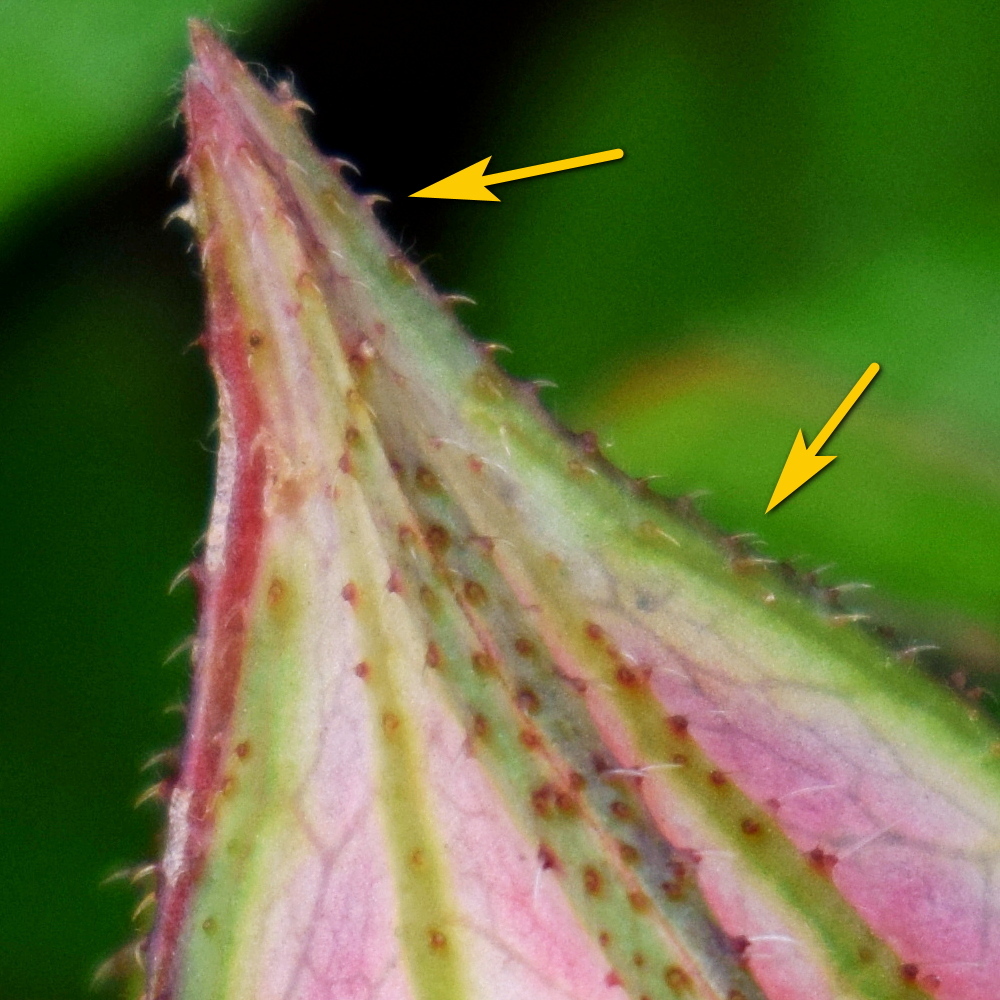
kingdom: Plantae
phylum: Tracheophyta
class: Magnoliopsida
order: Malvales
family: Malvaceae
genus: Hibiscus
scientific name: Hibiscus surattensis
